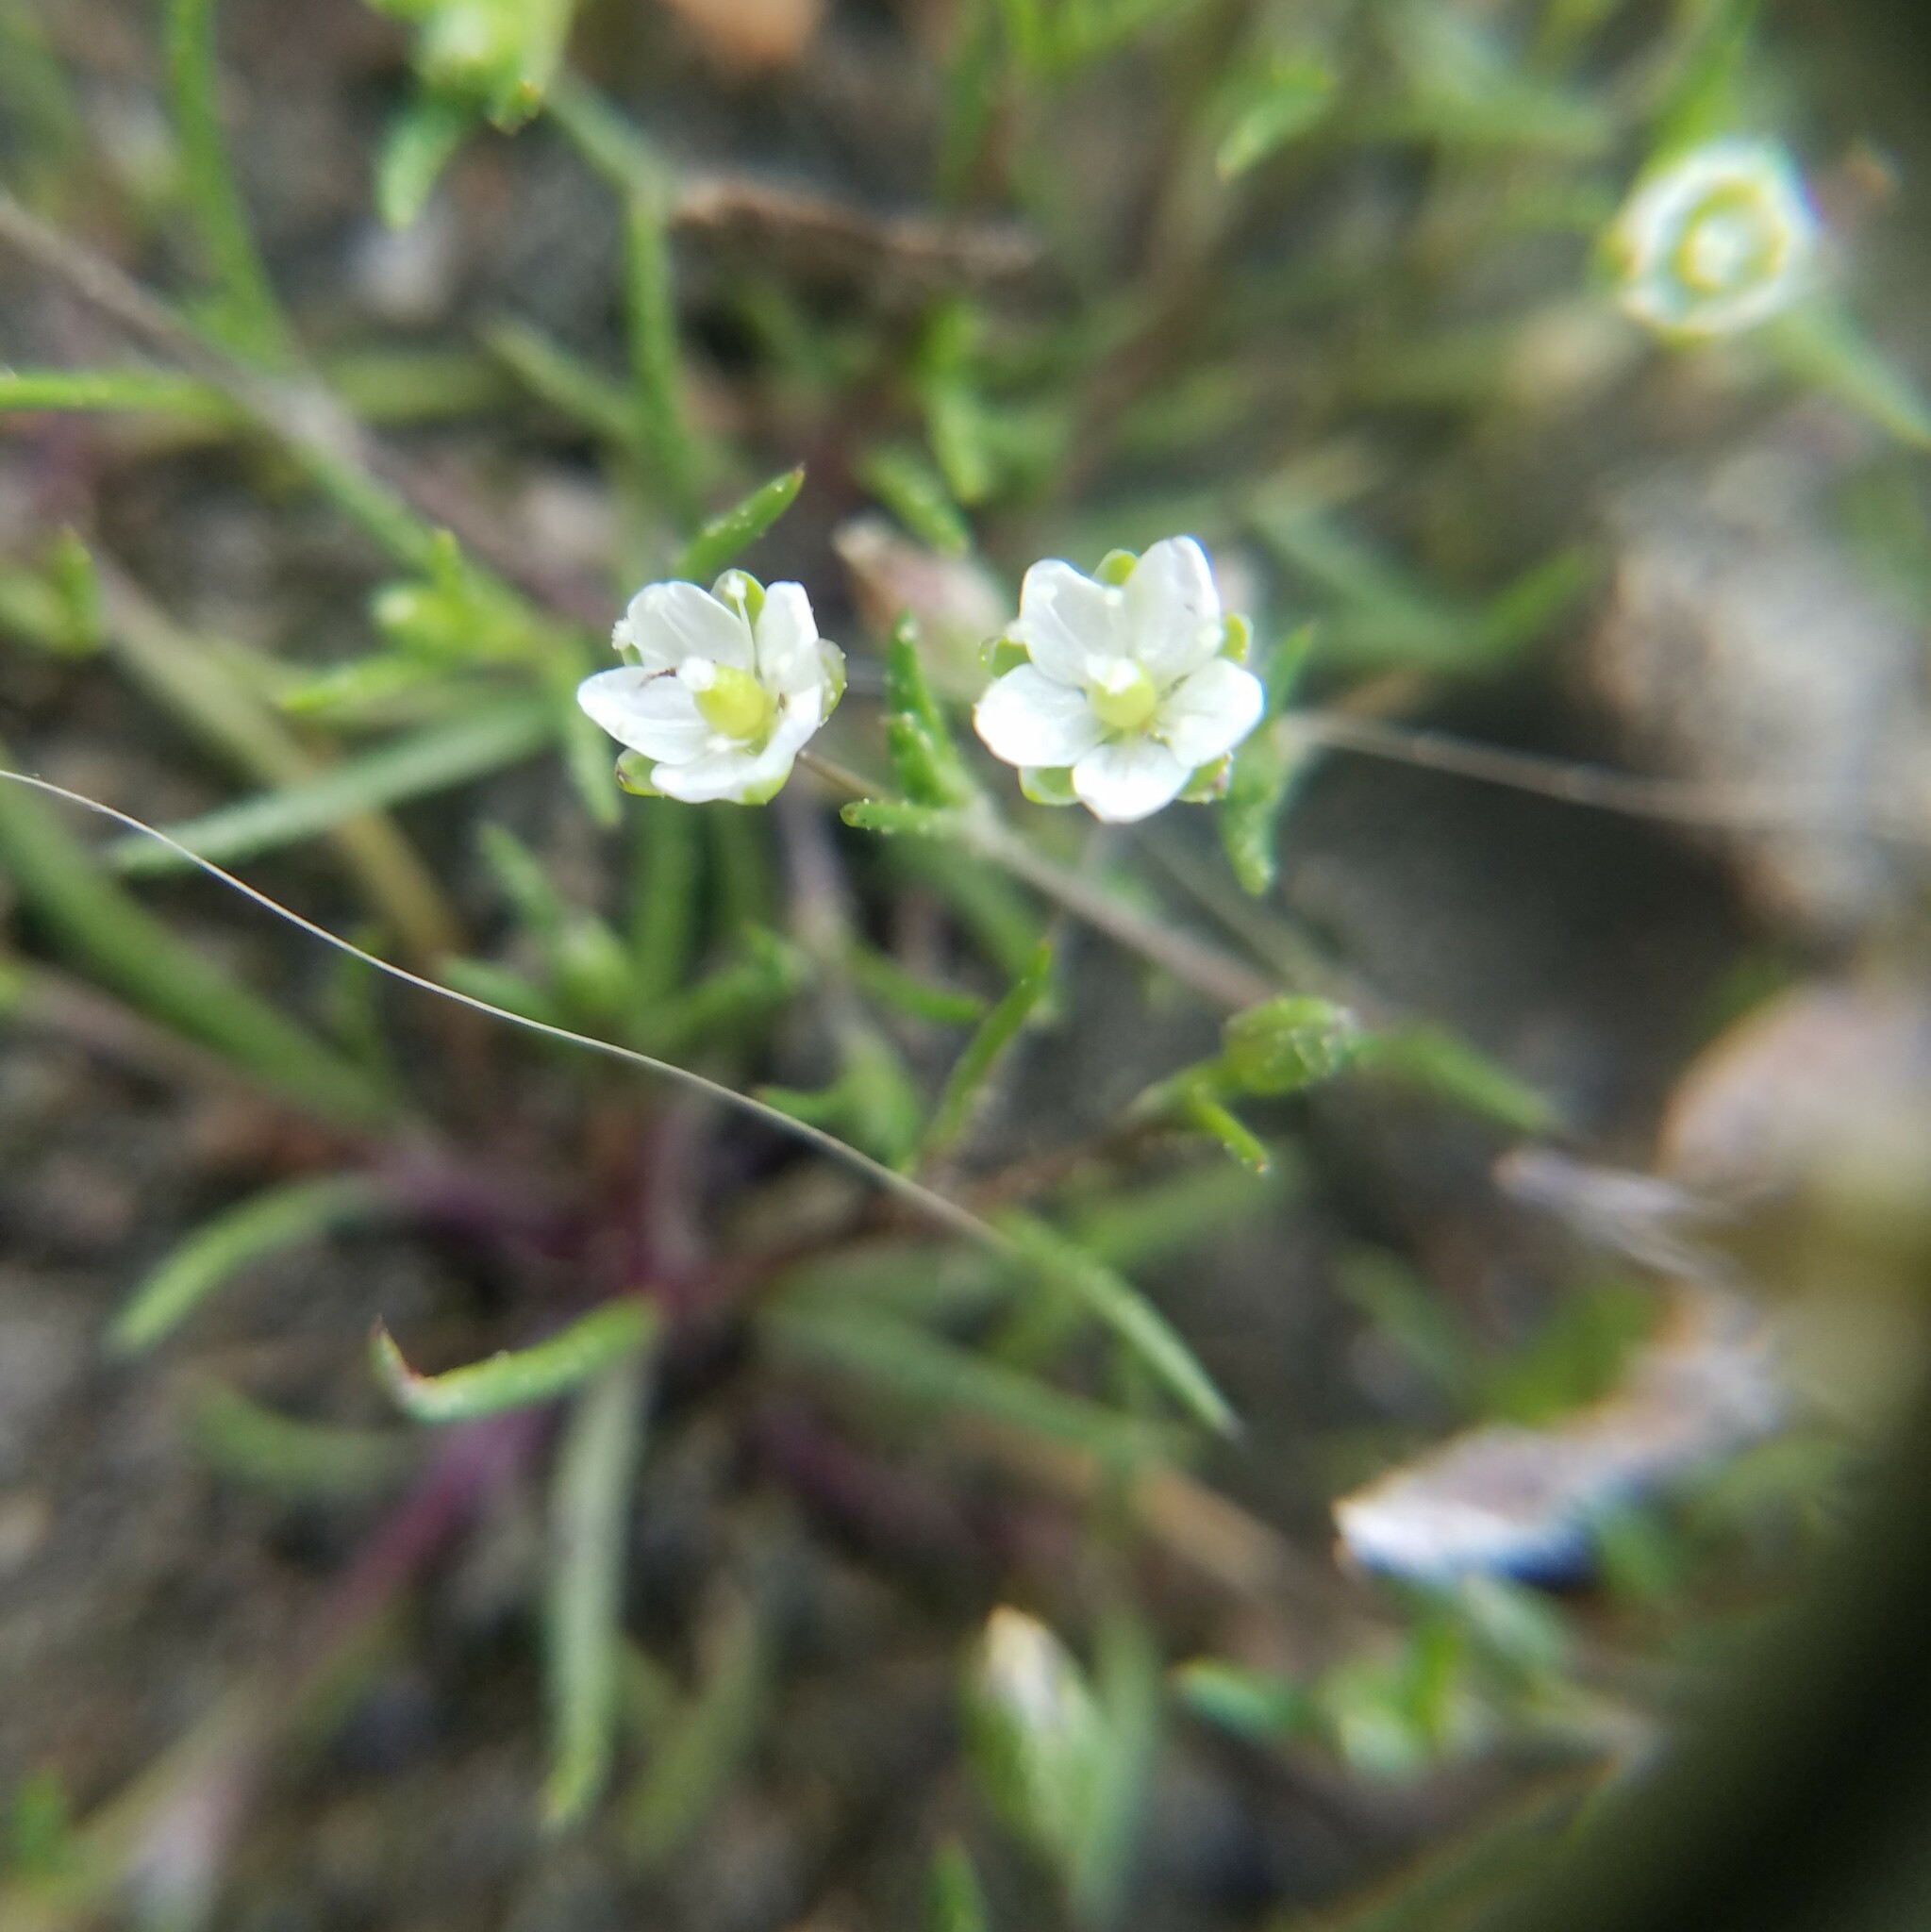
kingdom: Plantae
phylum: Tracheophyta
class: Magnoliopsida
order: Caryophyllales
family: Caryophyllaceae
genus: Sagina
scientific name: Sagina decumbens
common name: Decumbent pearlwort
